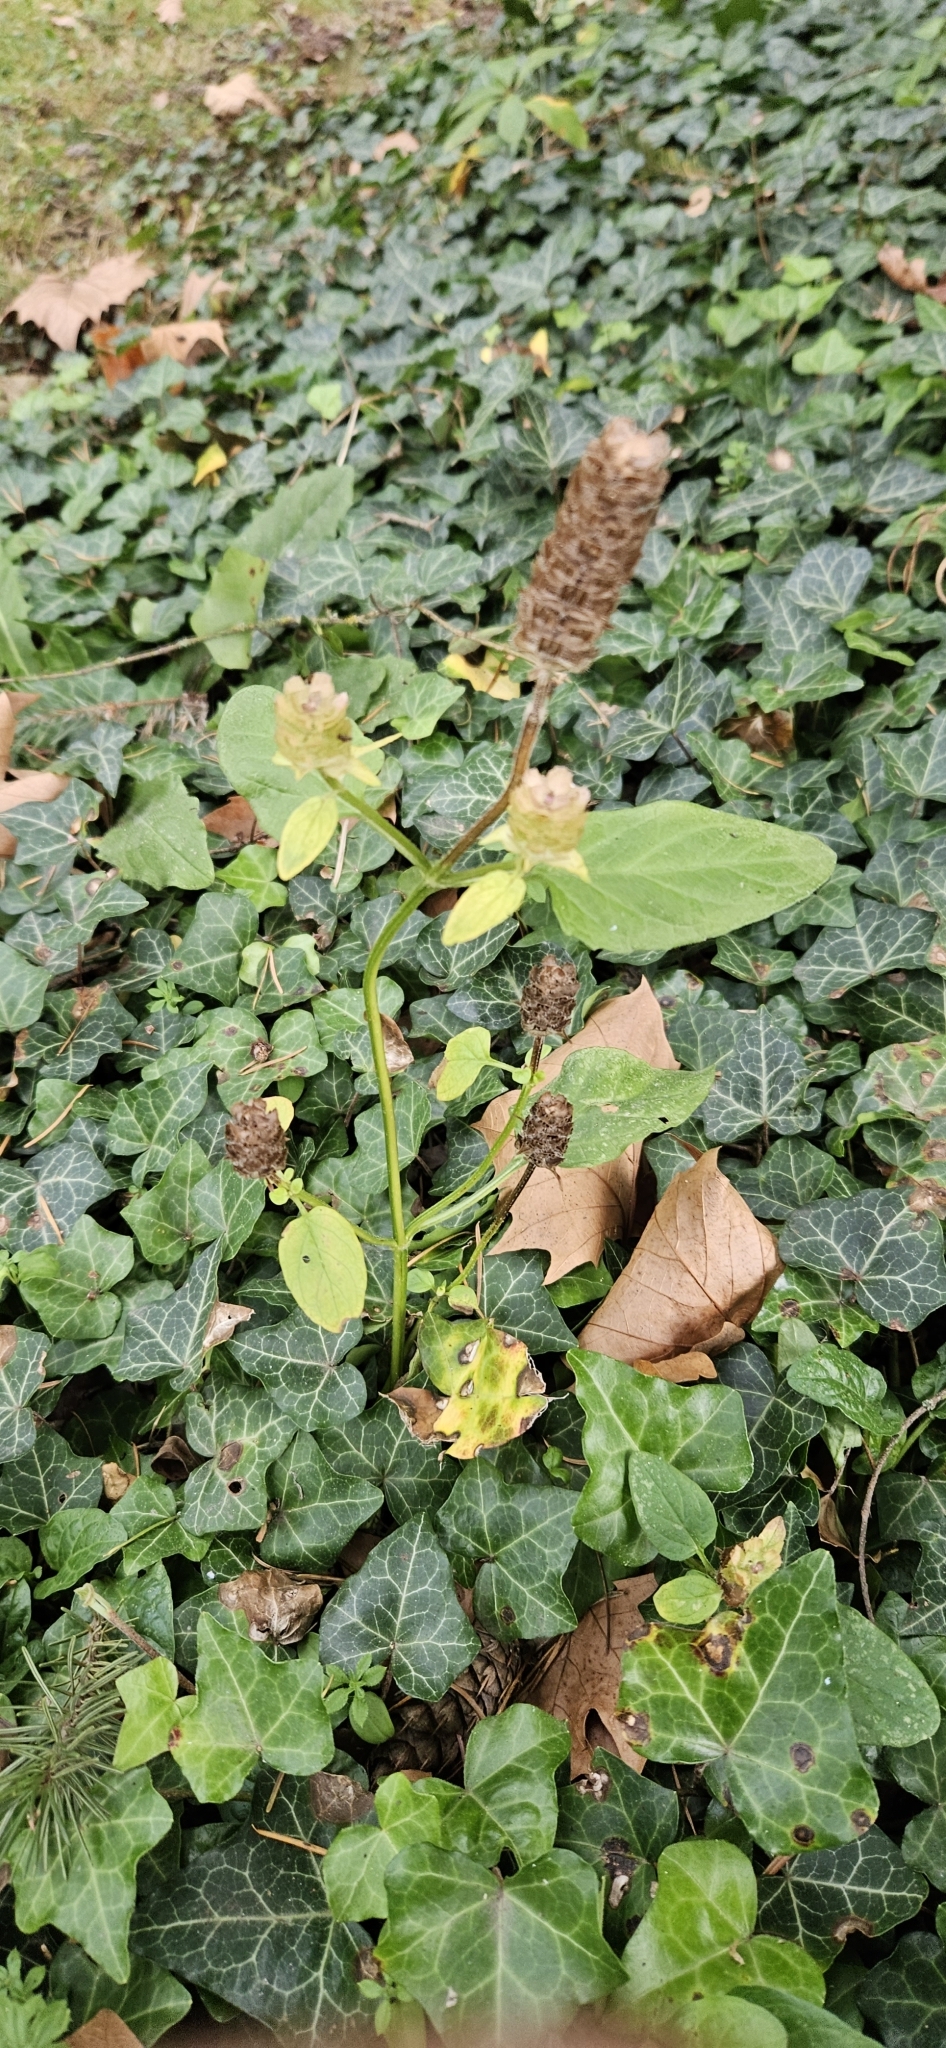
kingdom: Plantae
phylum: Tracheophyta
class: Magnoliopsida
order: Lamiales
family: Lamiaceae
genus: Prunella
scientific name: Prunella vulgaris
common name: Heal-all
